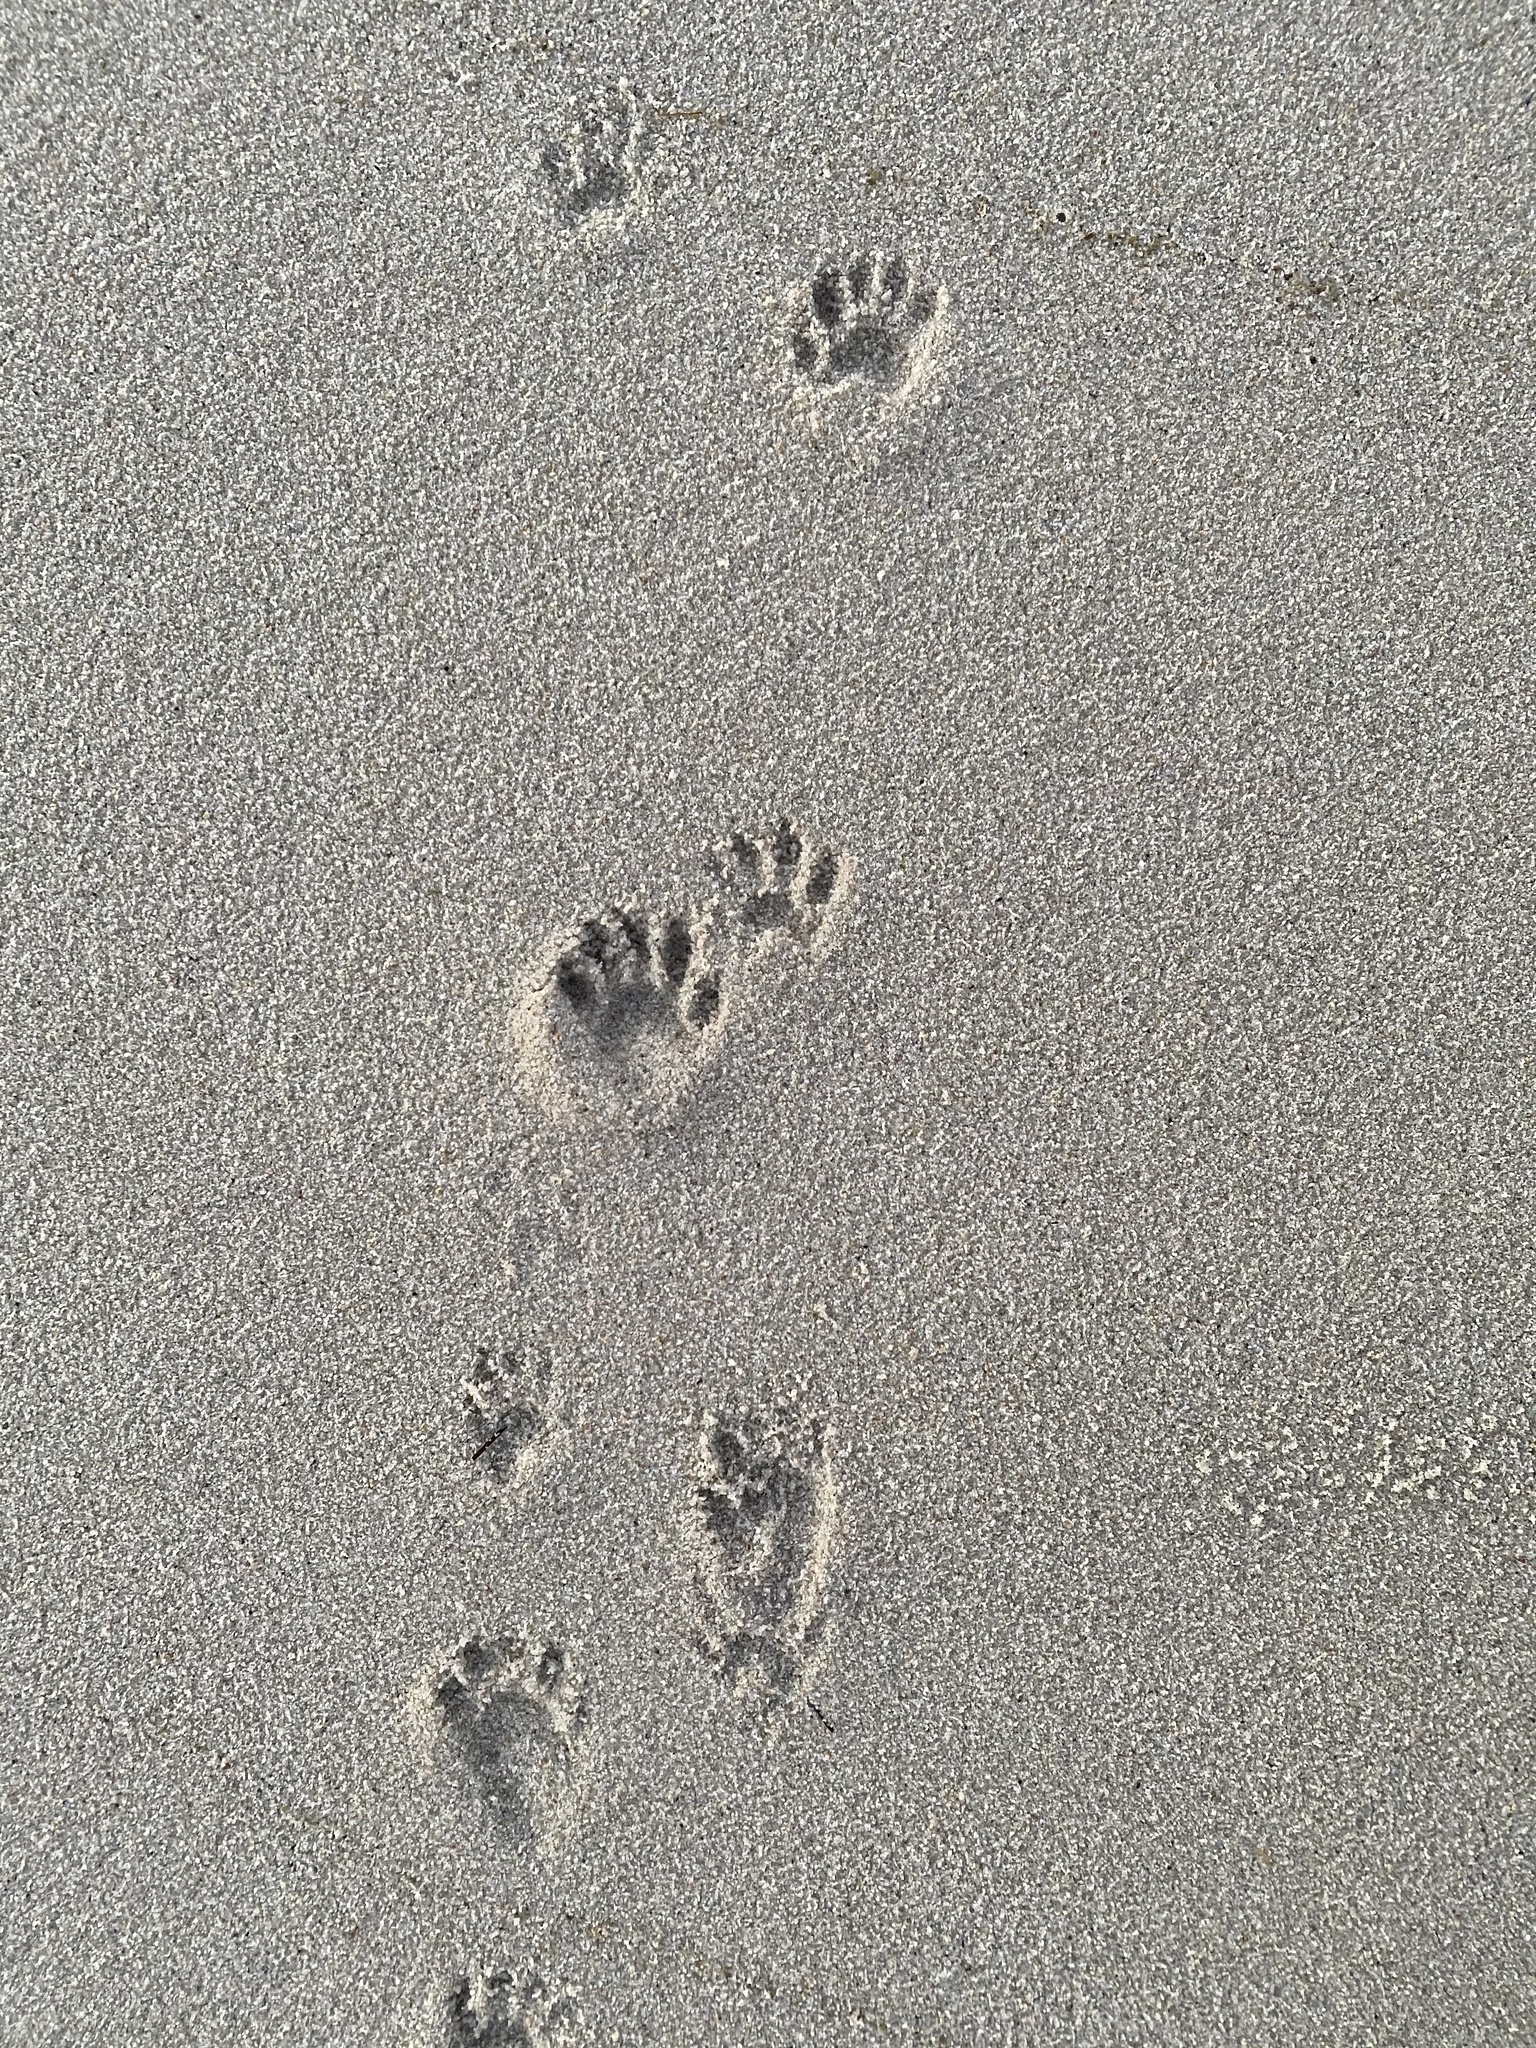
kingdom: Animalia
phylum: Chordata
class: Mammalia
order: Carnivora
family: Procyonidae
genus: Procyon
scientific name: Procyon lotor
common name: Raccoon
